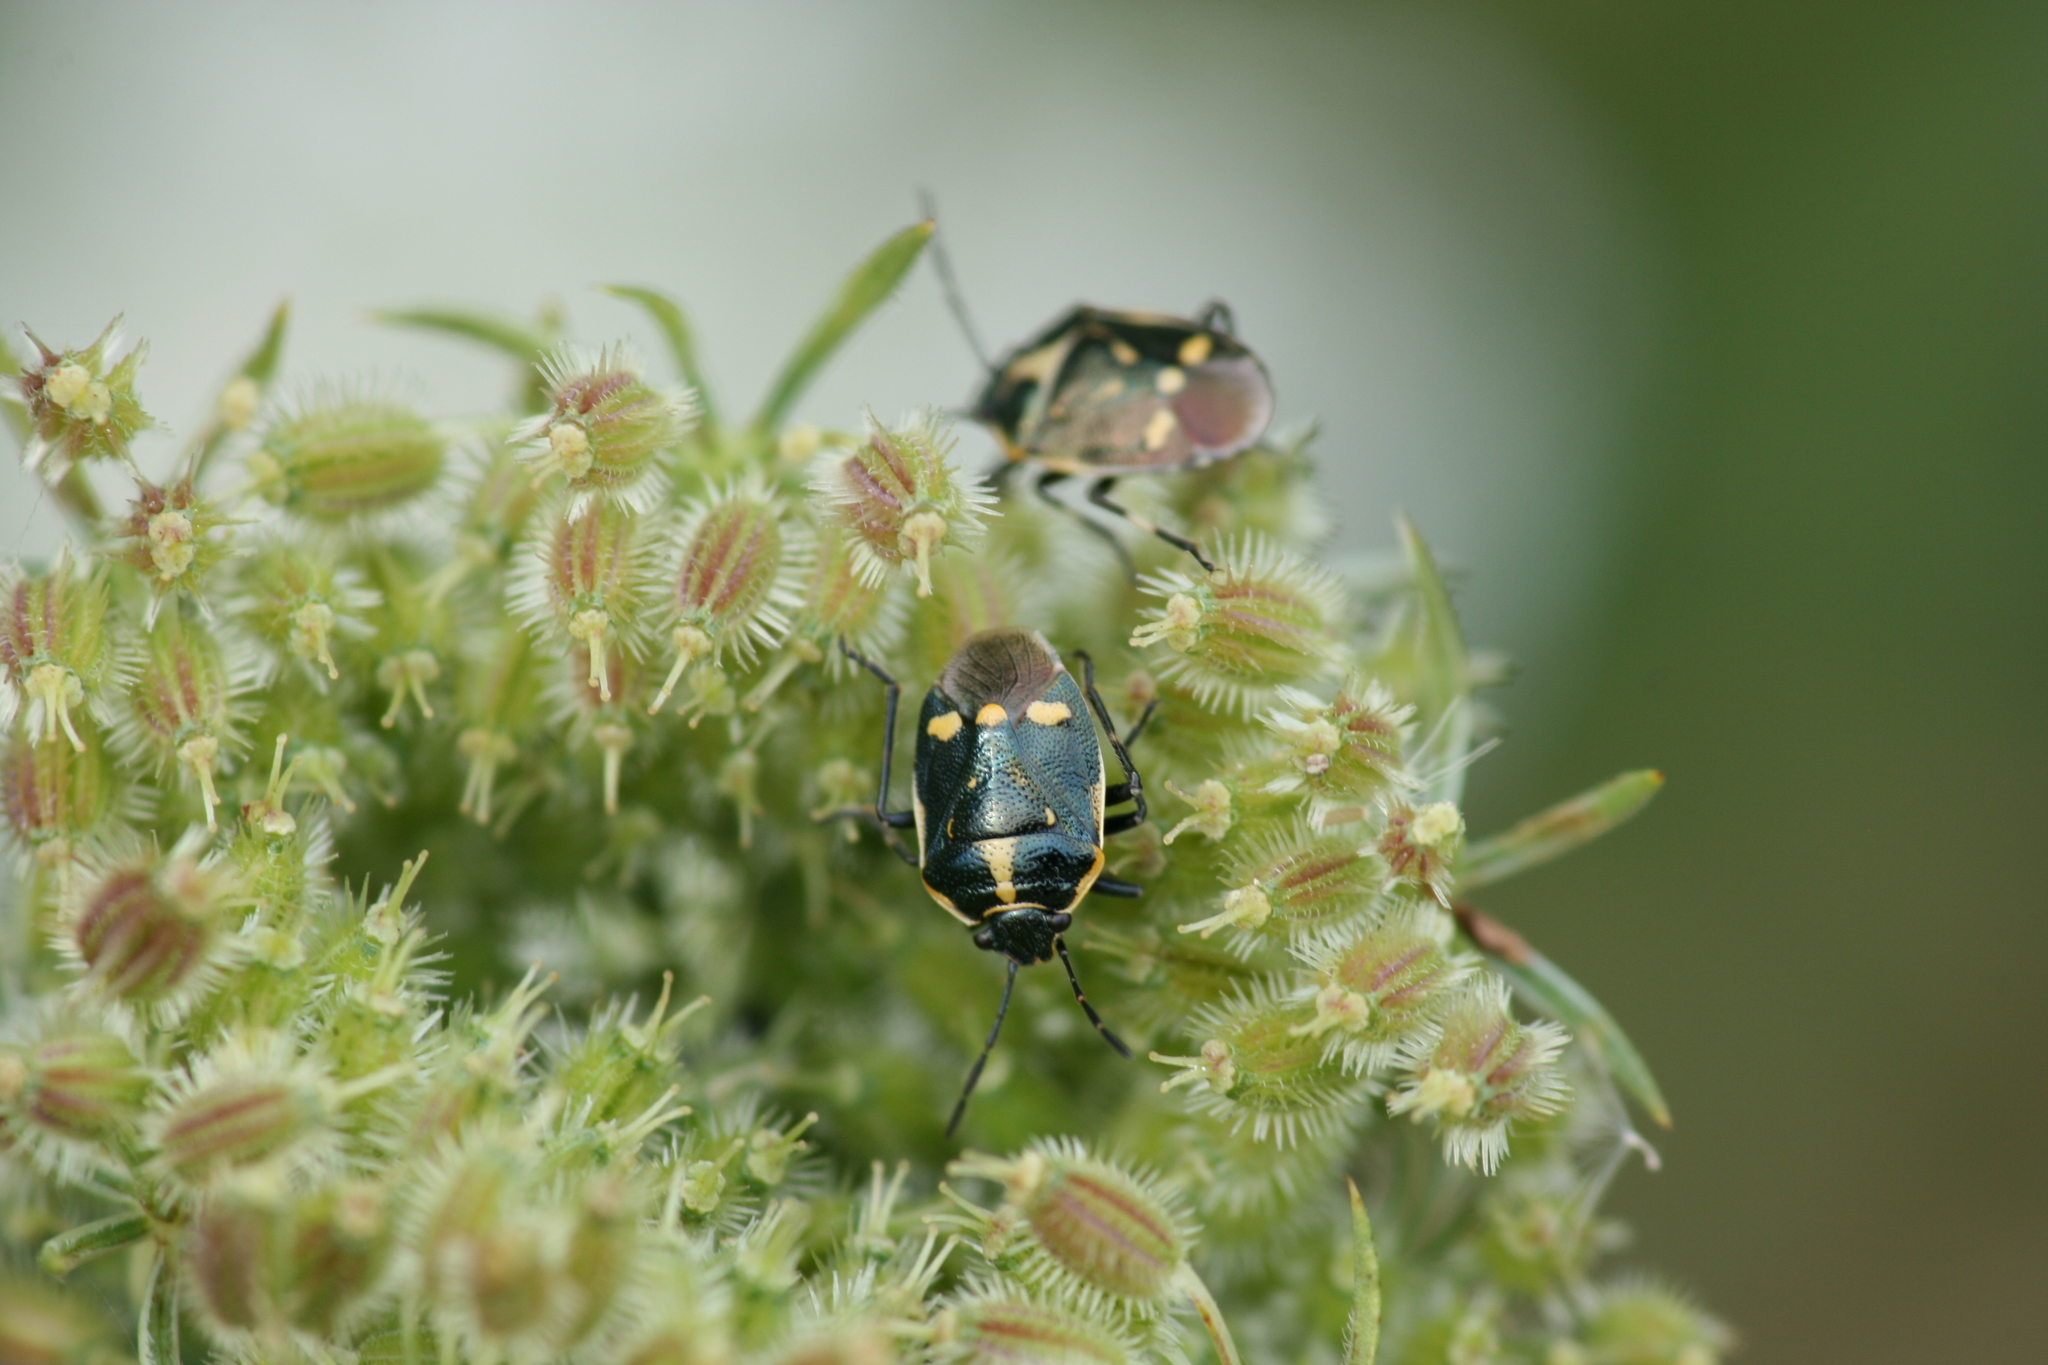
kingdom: Animalia
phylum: Arthropoda
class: Insecta
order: Hemiptera
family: Pentatomidae
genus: Eurydema
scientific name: Eurydema oleracea
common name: Cabbage bug
